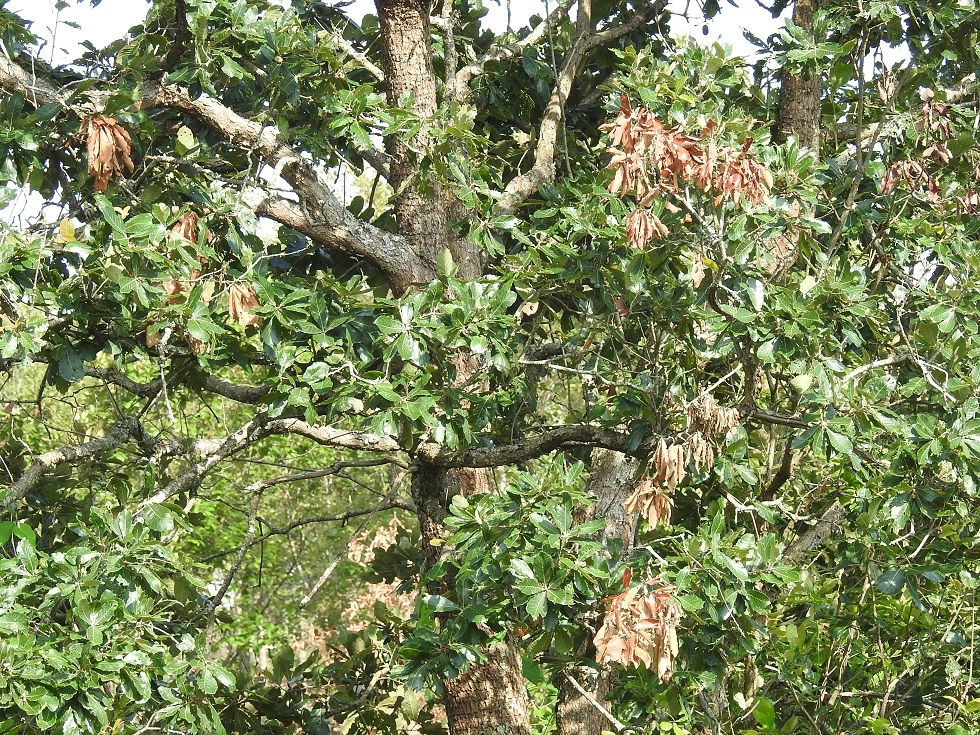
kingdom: Plantae
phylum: Tracheophyta
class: Magnoliopsida
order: Fagales
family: Fagaceae
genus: Quercus
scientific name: Quercus segoviensis
